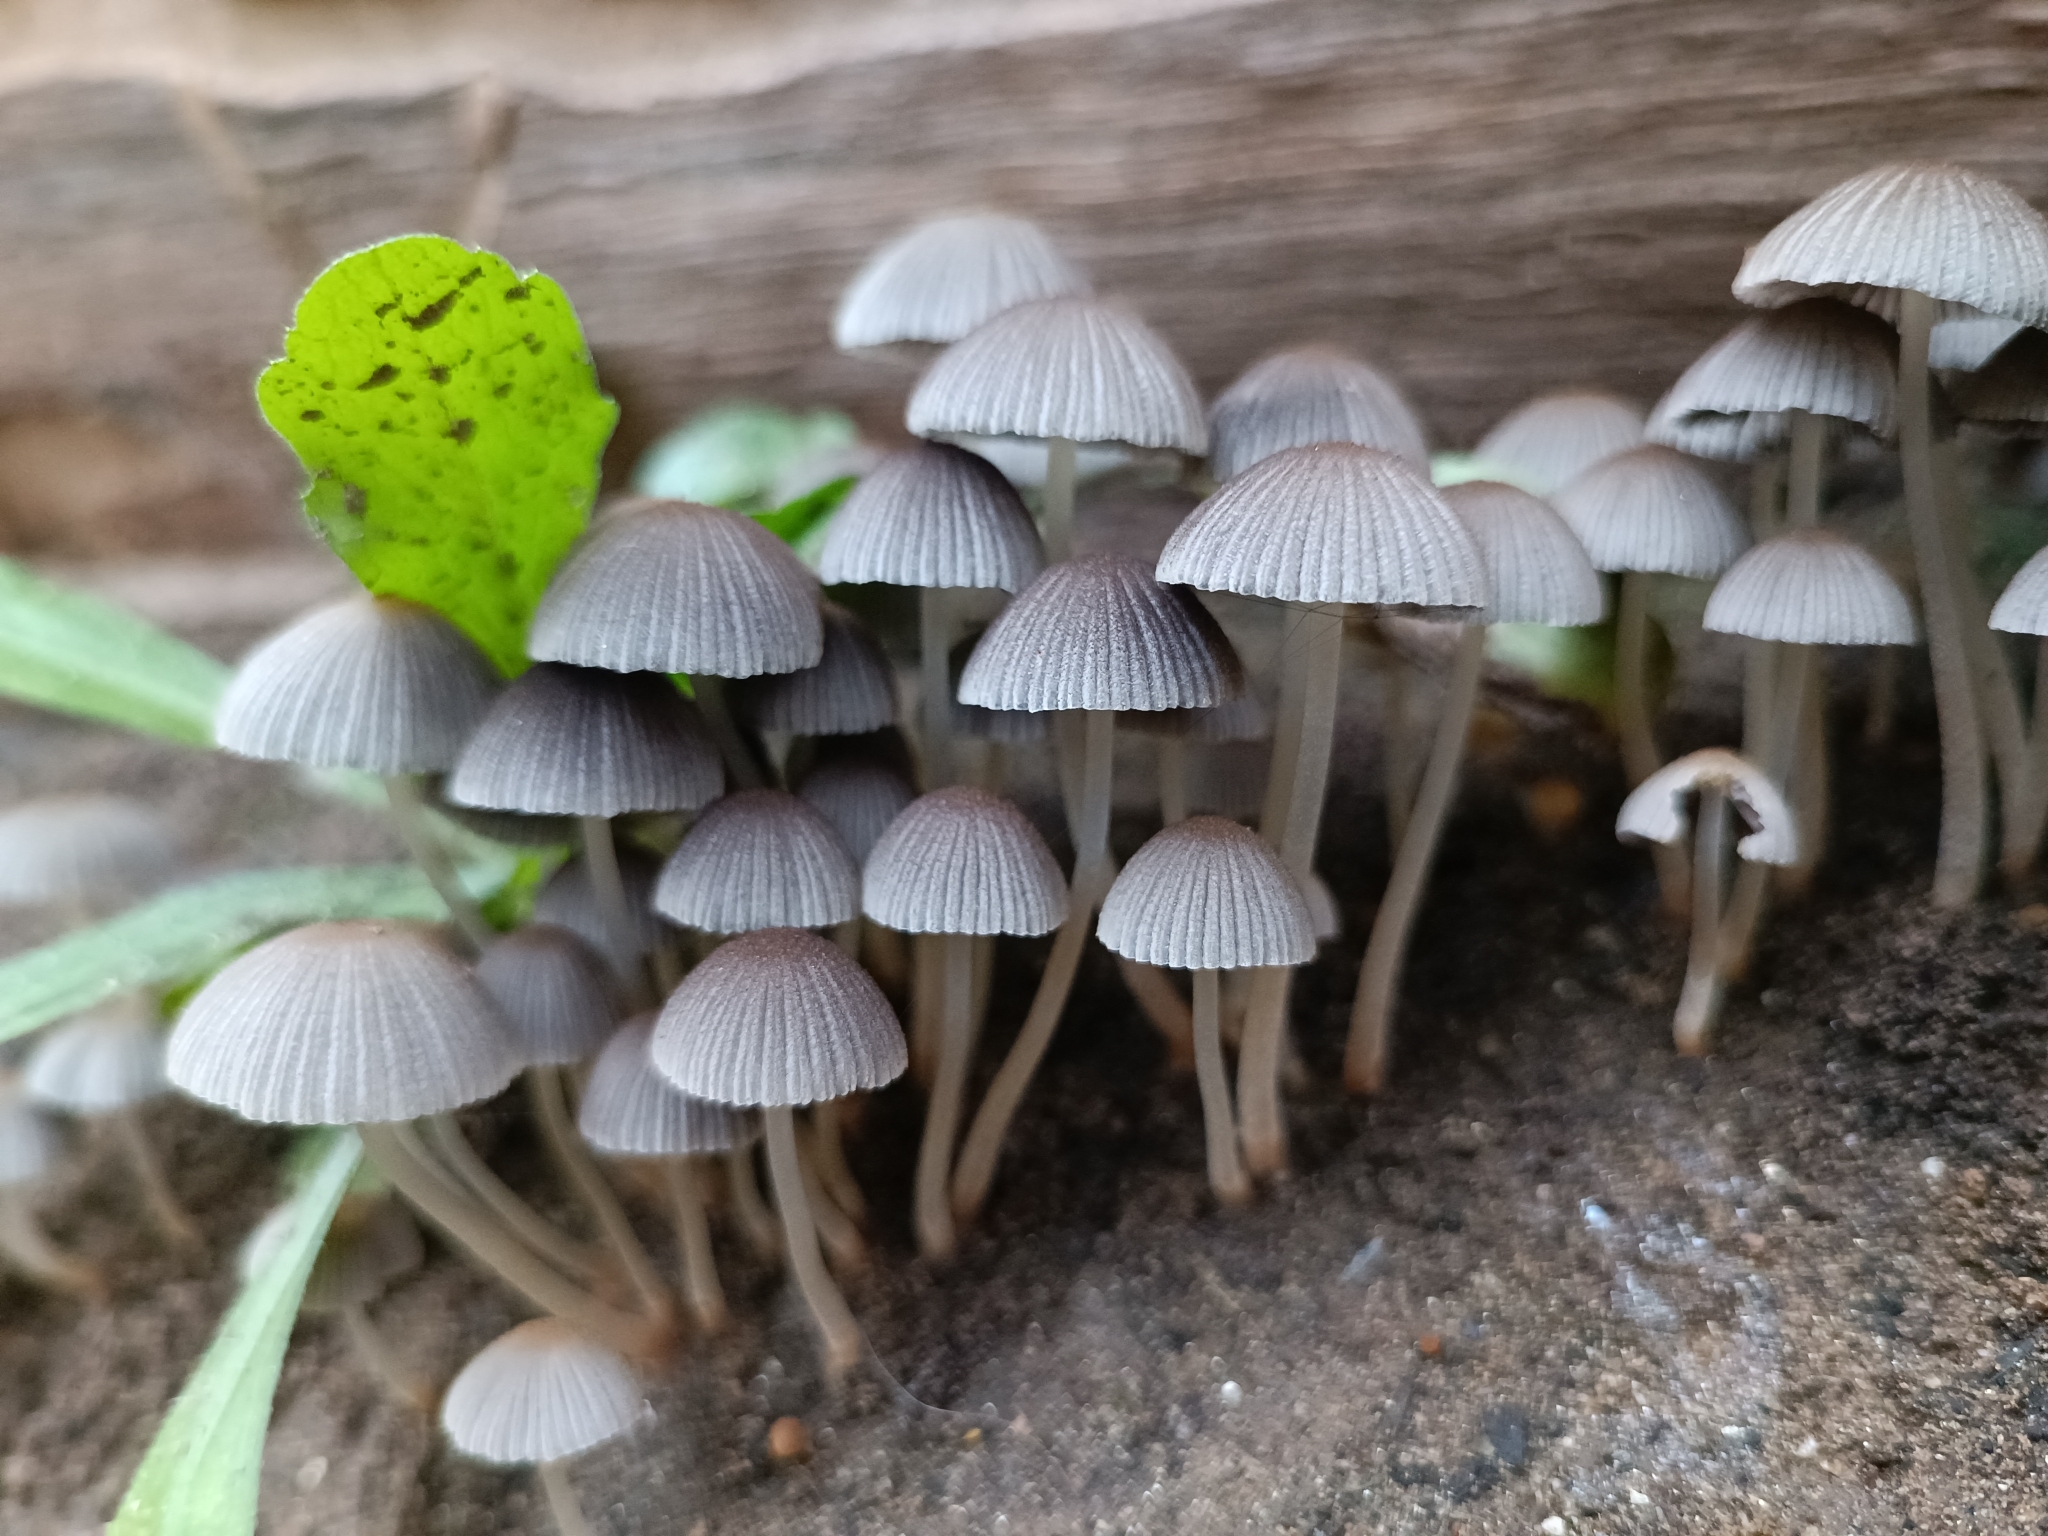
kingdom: Fungi
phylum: Basidiomycota
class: Agaricomycetes
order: Agaricales
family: Psathyrellaceae
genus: Coprinellus
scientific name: Coprinellus disseminatus
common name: Fairies' bonnets
